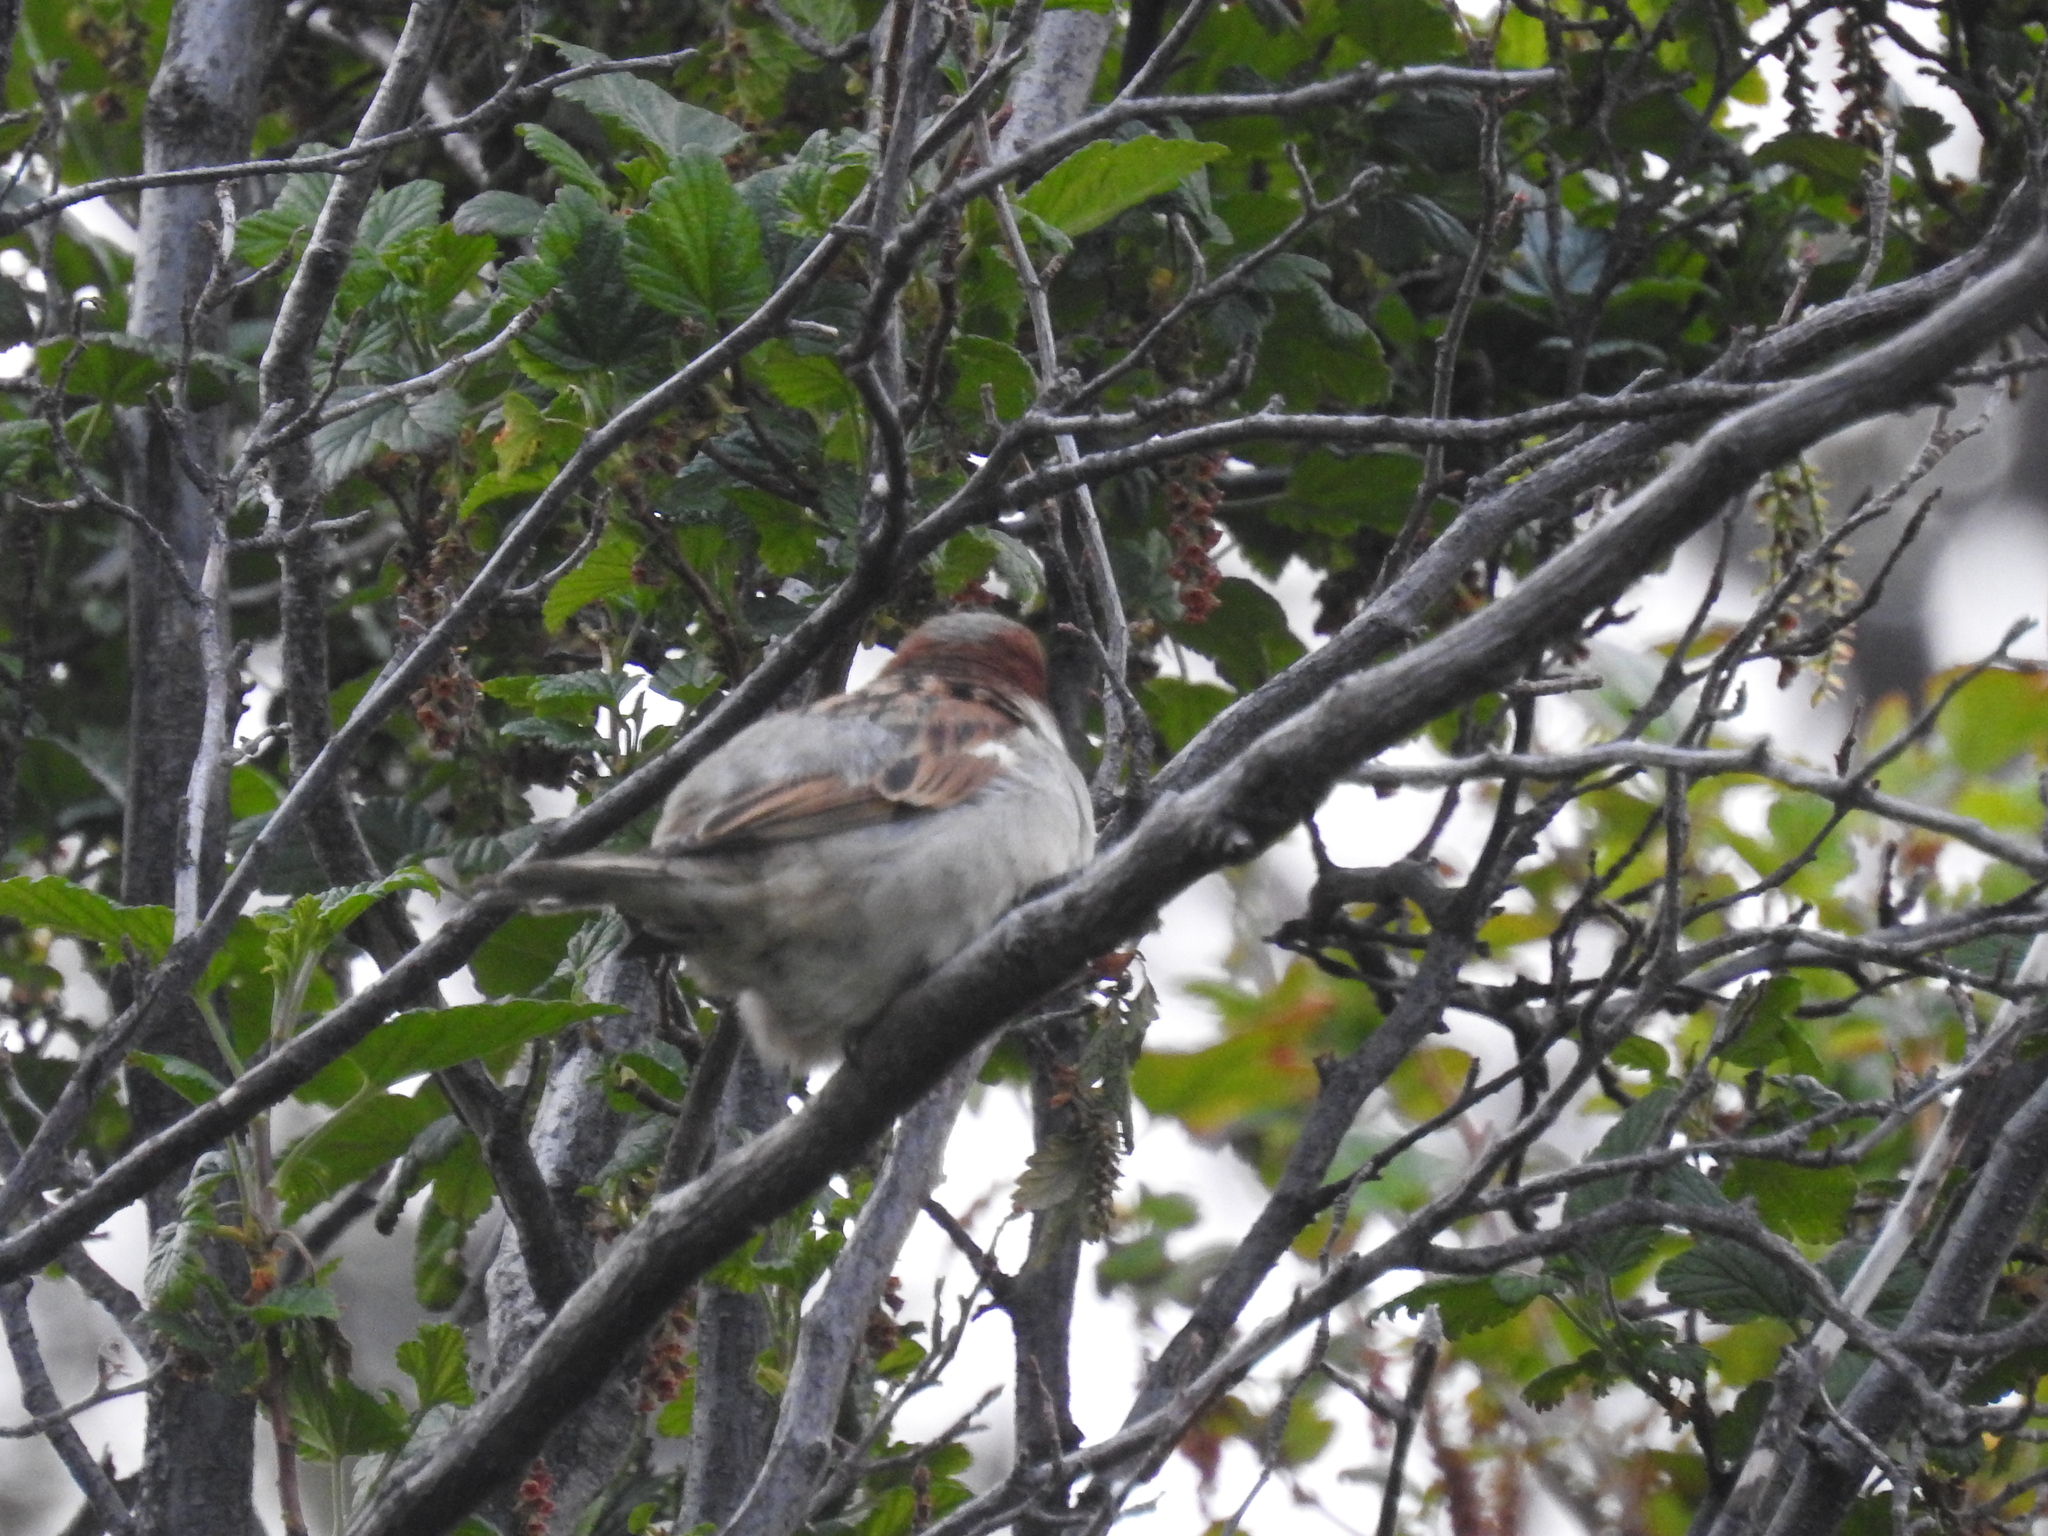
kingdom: Animalia
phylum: Chordata
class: Aves
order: Passeriformes
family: Passeridae
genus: Passer
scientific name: Passer domesticus
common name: House sparrow
